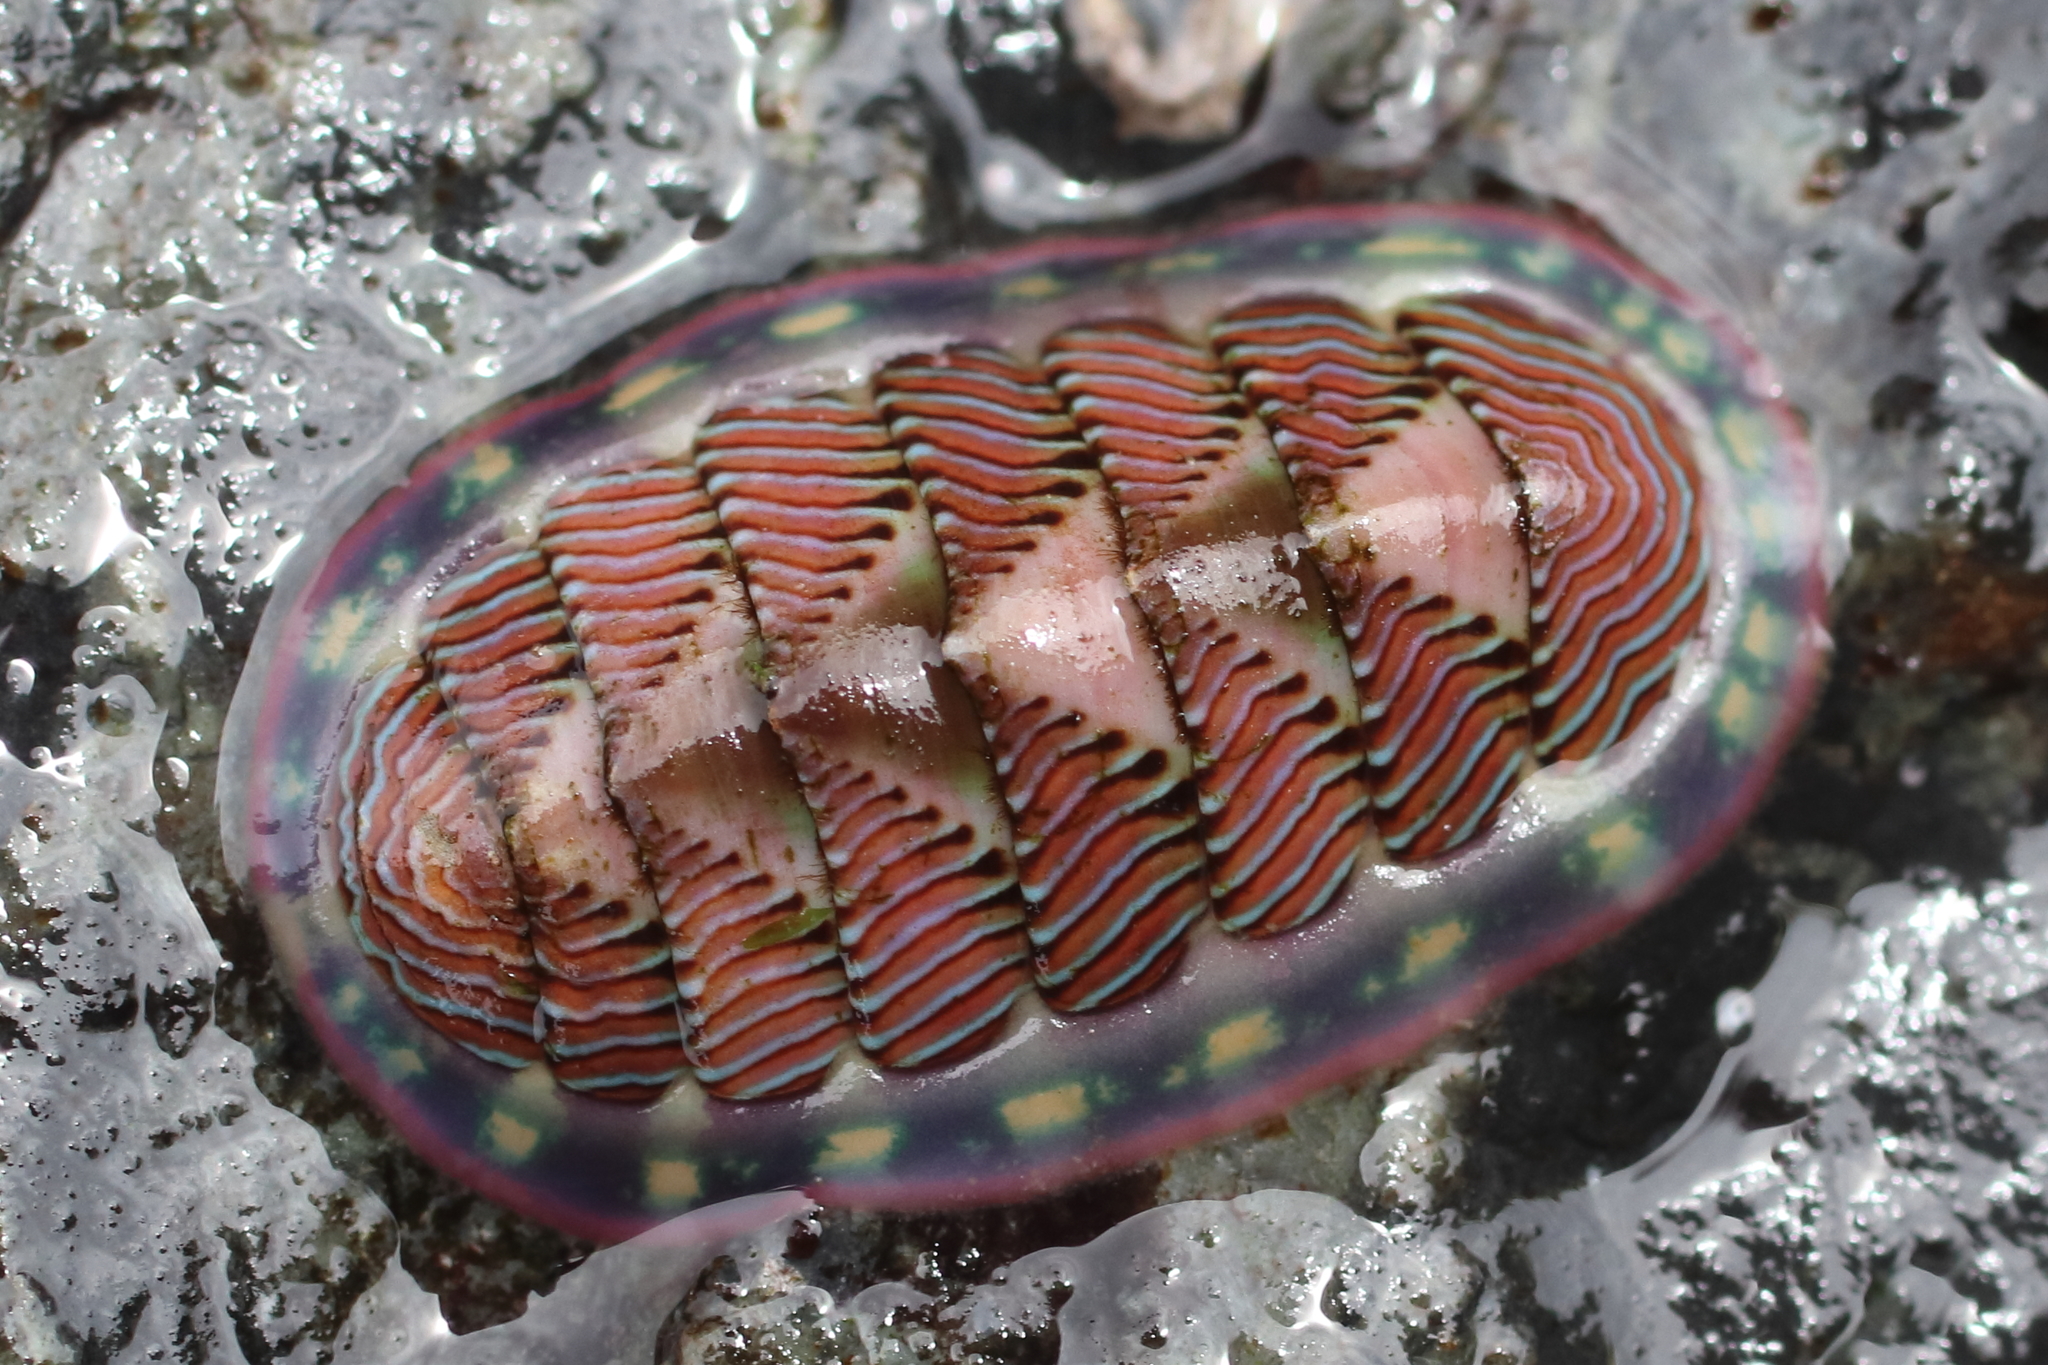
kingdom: Animalia
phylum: Mollusca
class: Polyplacophora
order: Chitonida
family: Tonicellidae
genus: Tonicella
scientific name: Tonicella lineata
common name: Lined chiton
